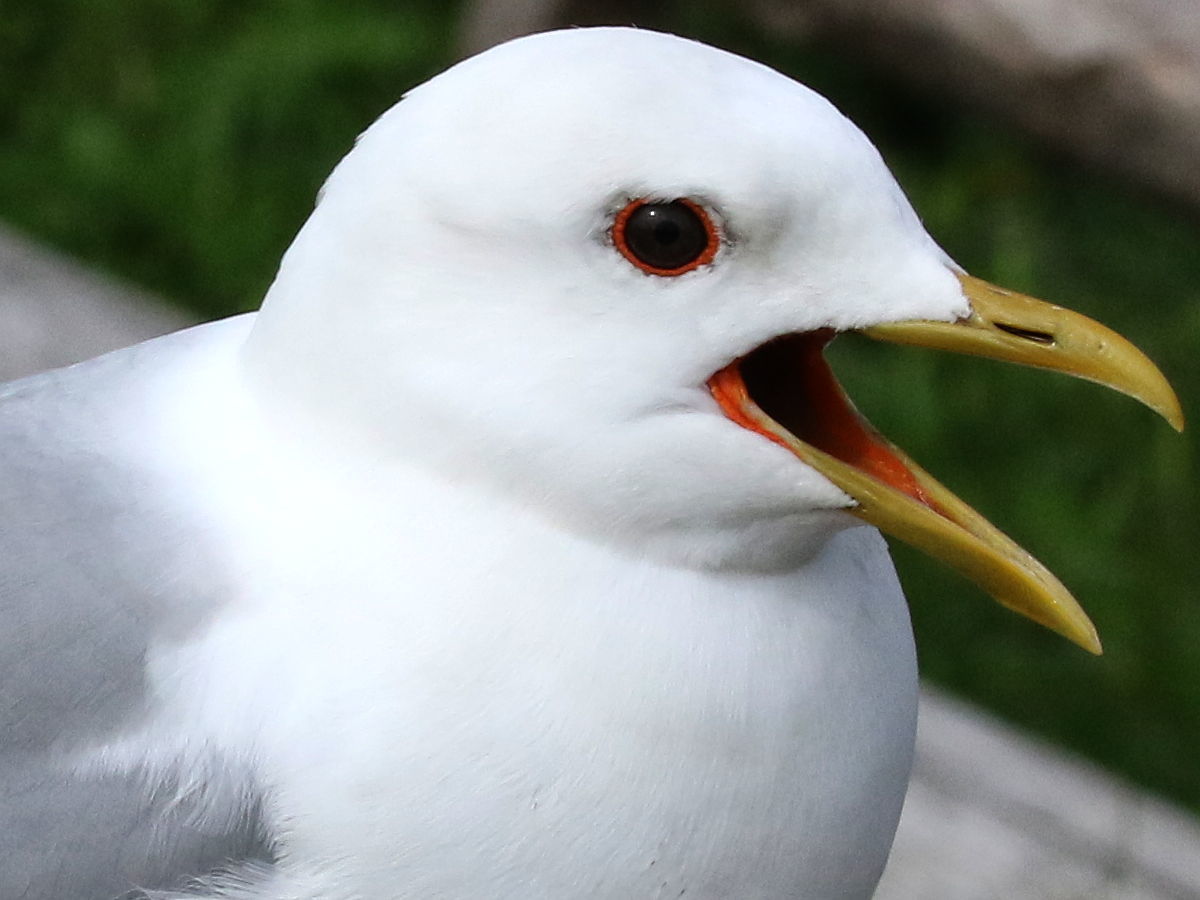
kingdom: Animalia
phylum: Chordata
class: Aves
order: Charadriiformes
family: Laridae
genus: Larus
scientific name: Larus canus
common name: Mew gull
